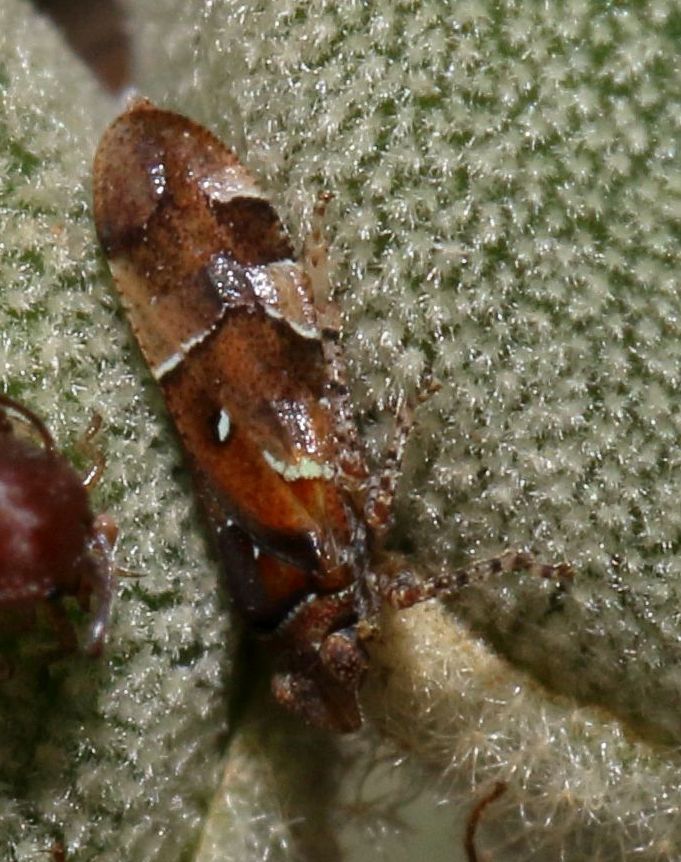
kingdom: Animalia
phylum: Arthropoda
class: Insecta
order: Hemiptera
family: Tettigometridae
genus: Nototettigometra
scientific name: Nototettigometra patruelis
